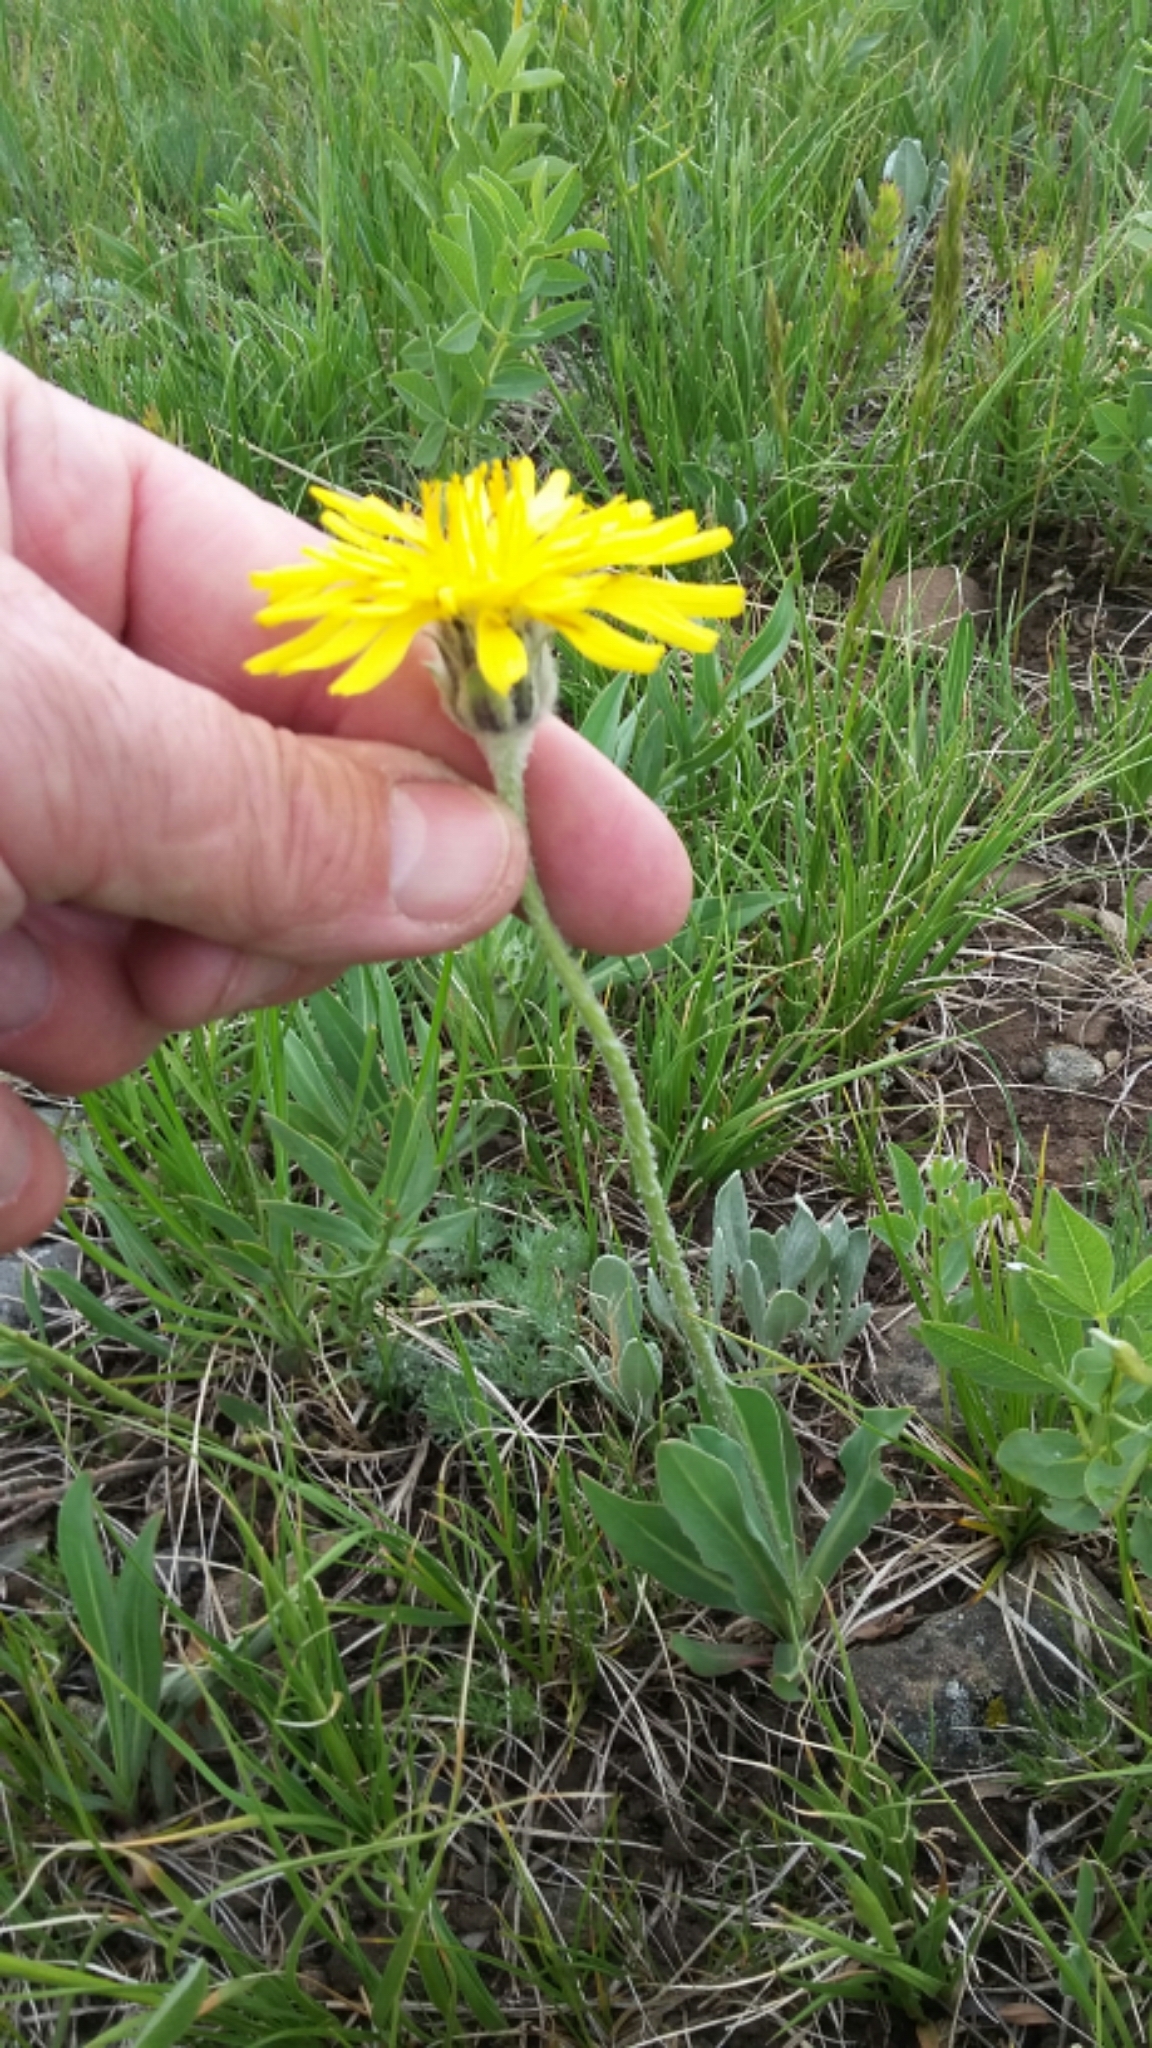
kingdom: Plantae
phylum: Tracheophyta
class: Magnoliopsida
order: Asterales
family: Asteraceae
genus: Agoseris
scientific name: Agoseris glauca
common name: Prairie agoseris
